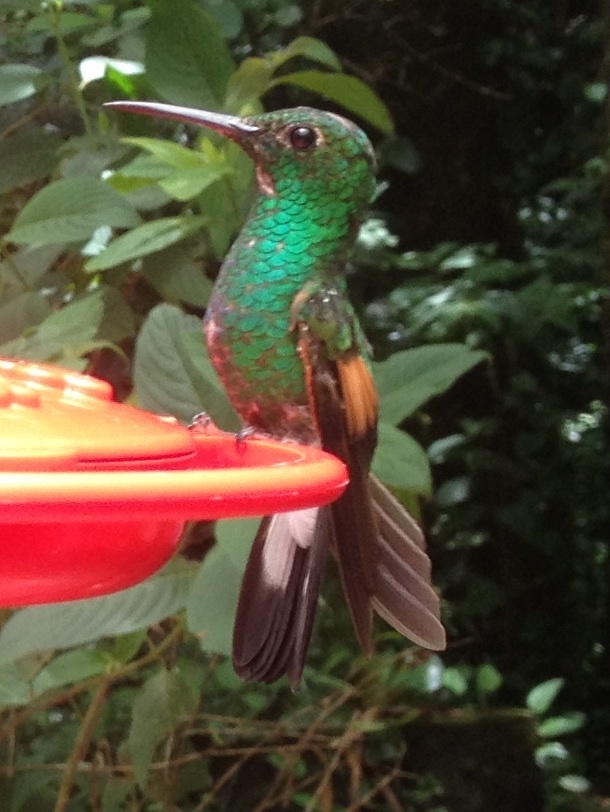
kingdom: Animalia
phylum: Chordata
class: Aves
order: Apodiformes
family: Trochilidae
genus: Eupherusa
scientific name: Eupherusa eximia
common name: Stripe-tailed hummingbird
